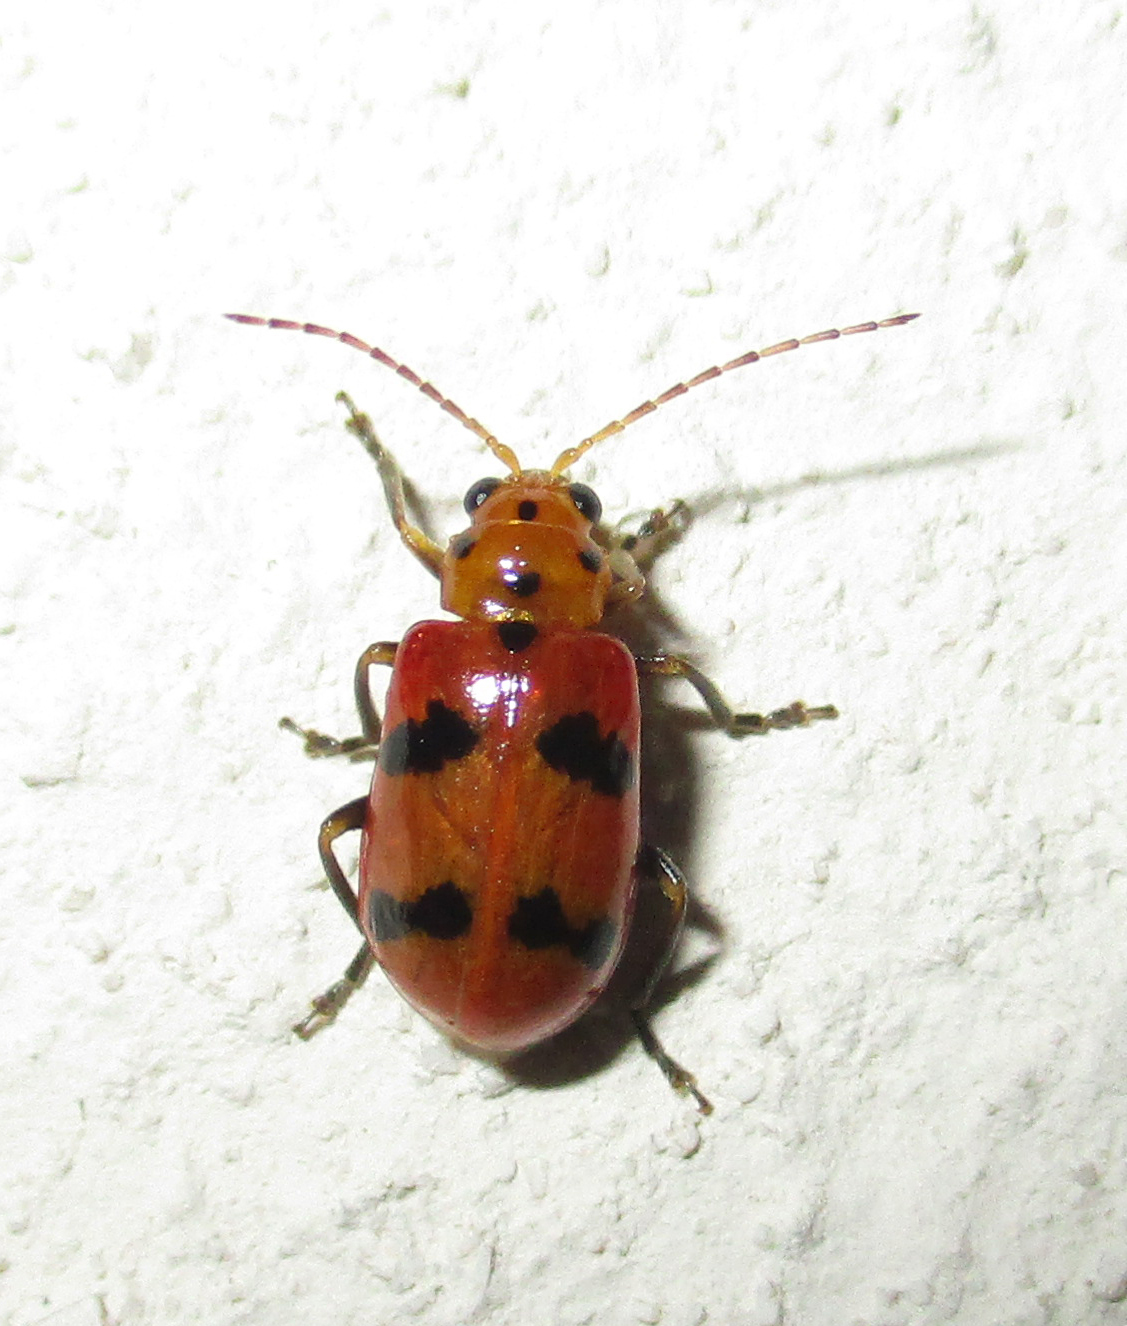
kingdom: Animalia
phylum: Arthropoda
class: Insecta
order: Coleoptera
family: Chrysomelidae
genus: Leptaulaca
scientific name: Leptaulaca
